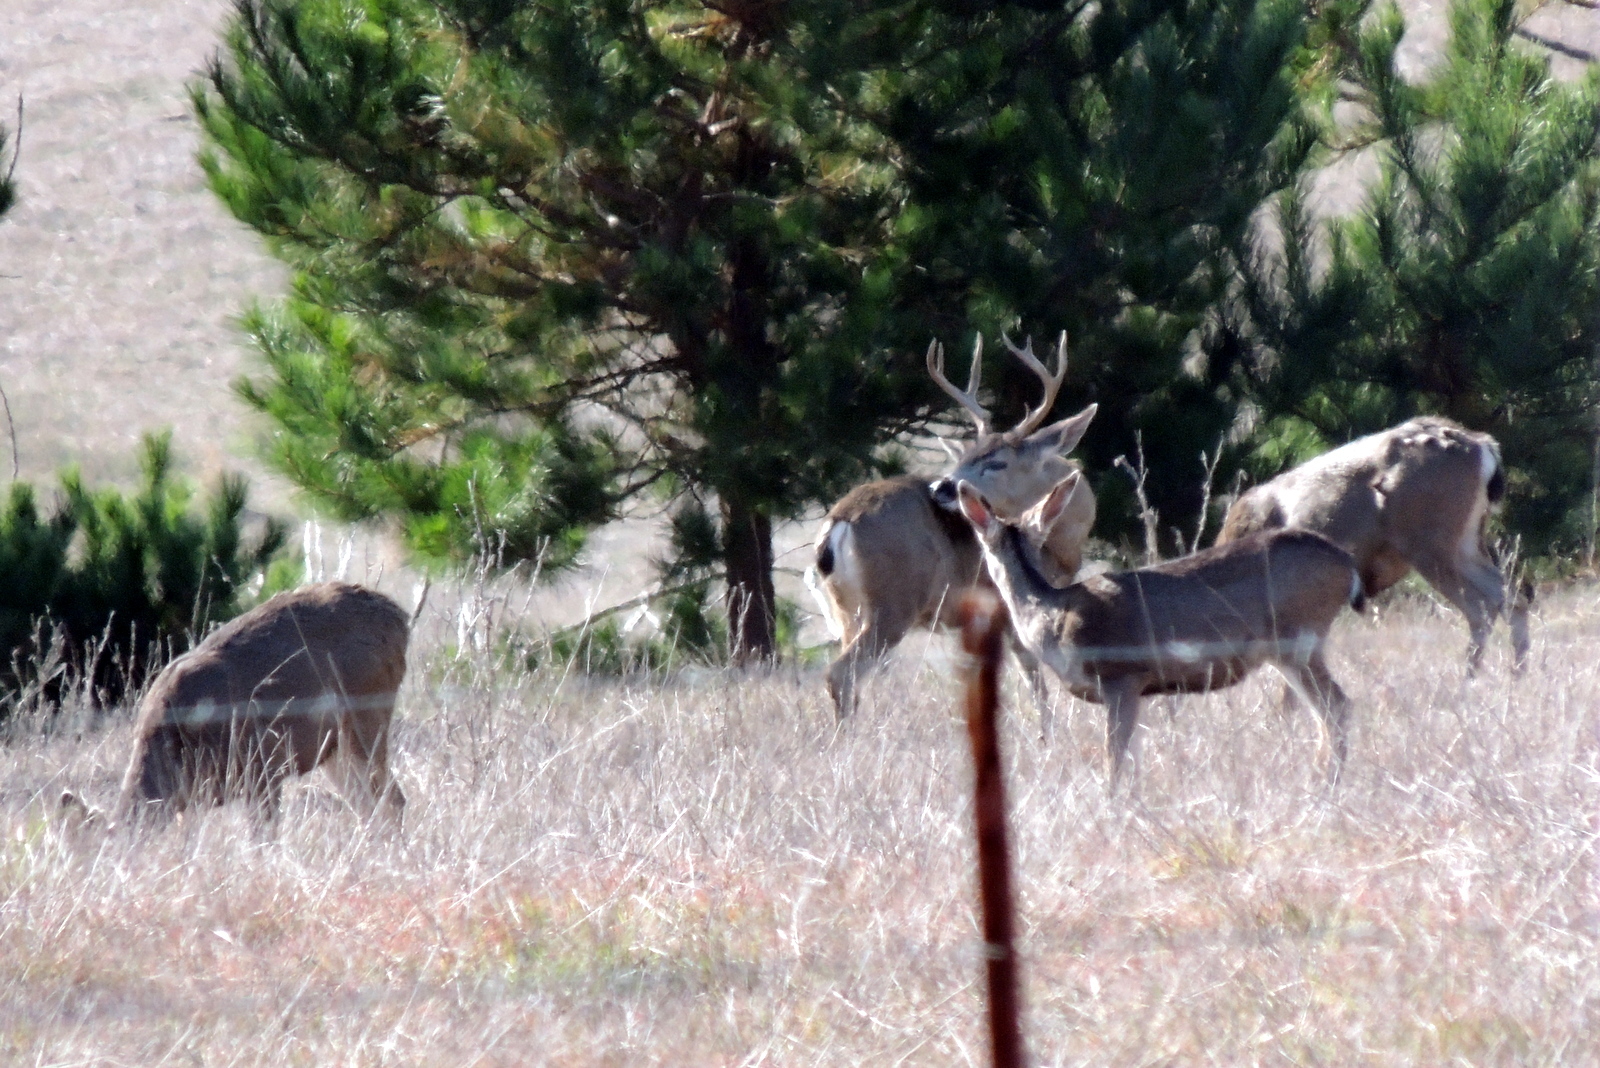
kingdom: Animalia
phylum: Chordata
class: Mammalia
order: Artiodactyla
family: Cervidae
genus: Odocoileus
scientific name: Odocoileus hemionus
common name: Mule deer
